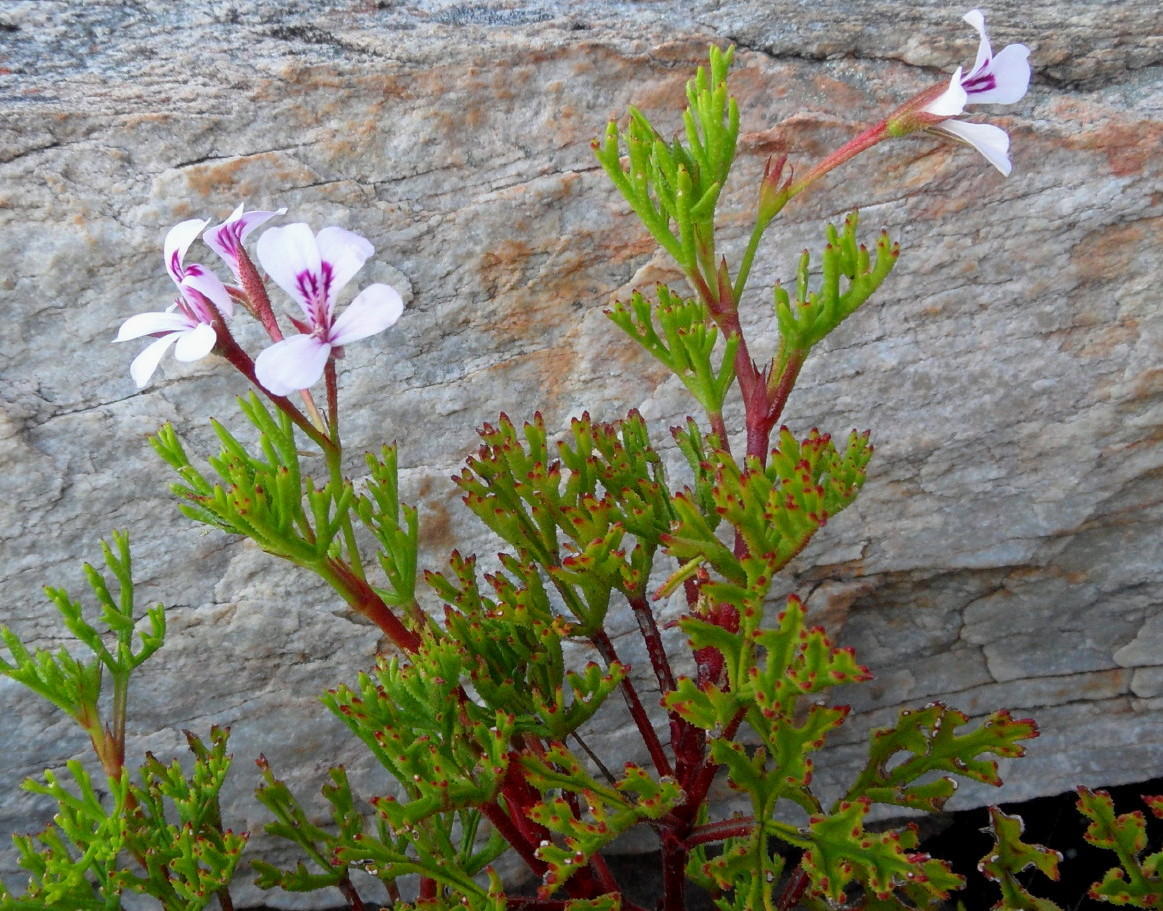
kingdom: Plantae
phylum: Tracheophyta
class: Magnoliopsida
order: Geraniales
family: Geraniaceae
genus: Pelargonium
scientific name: Pelargonium fruticosum
